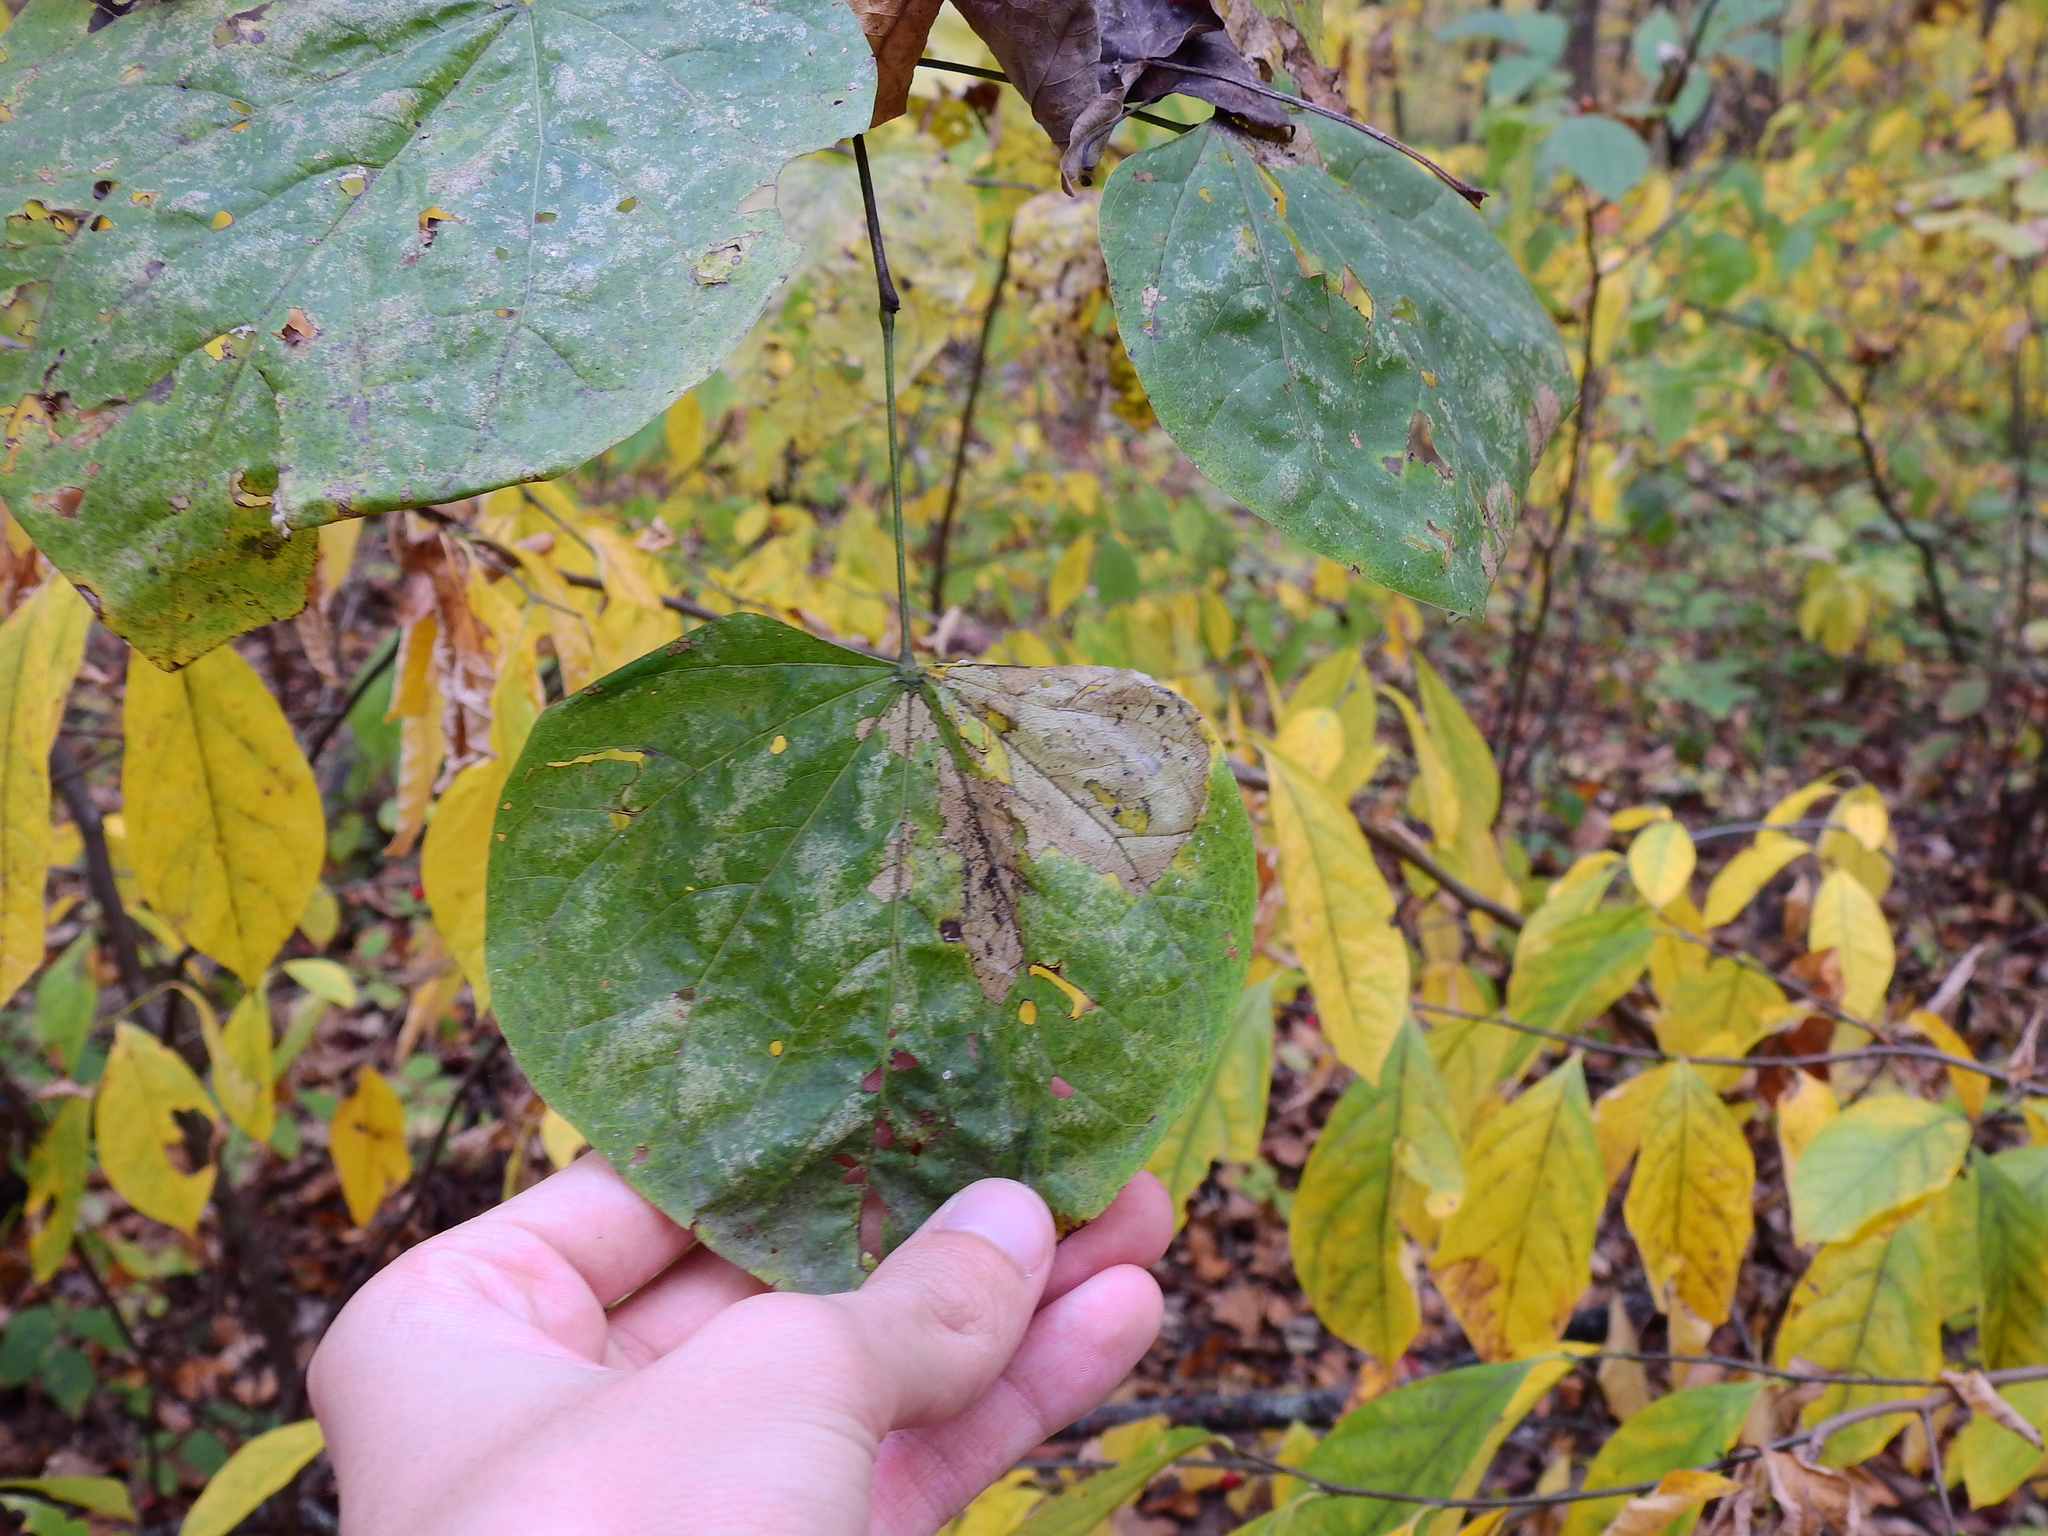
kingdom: Plantae
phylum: Tracheophyta
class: Magnoliopsida
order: Fabales
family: Fabaceae
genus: Cercis
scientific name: Cercis canadensis
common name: Eastern redbud
